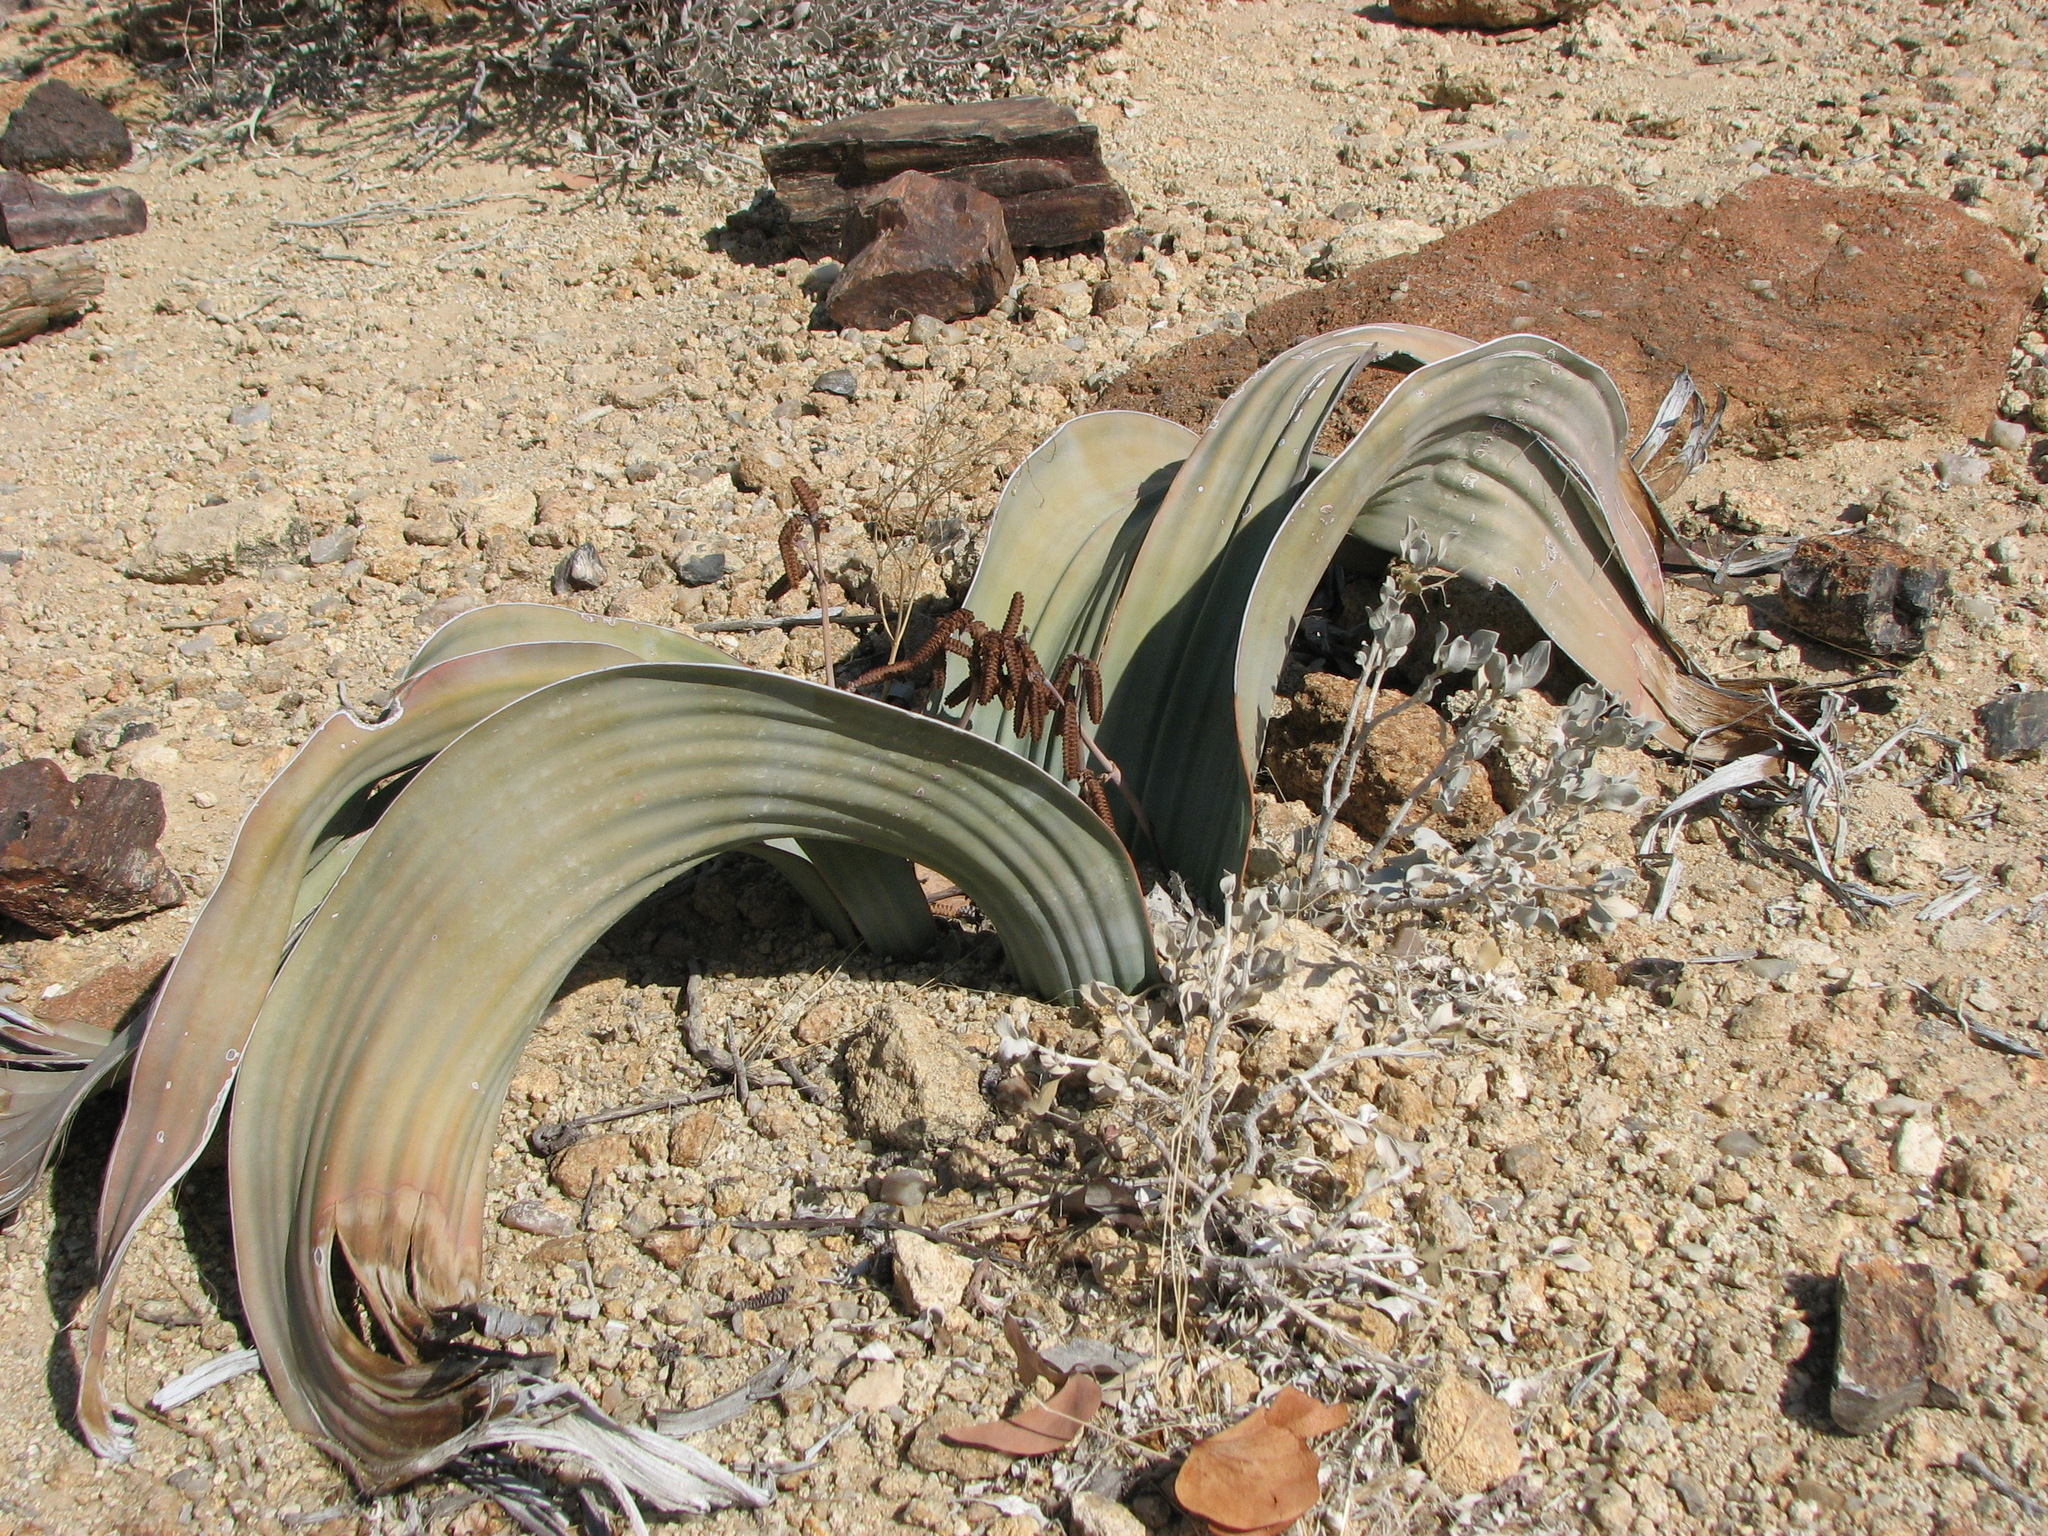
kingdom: Plantae
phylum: Tracheophyta
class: Gnetopsida
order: Welwitschiales
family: Welwitschiaceae
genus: Welwitschia
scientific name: Welwitschia mirabilis
